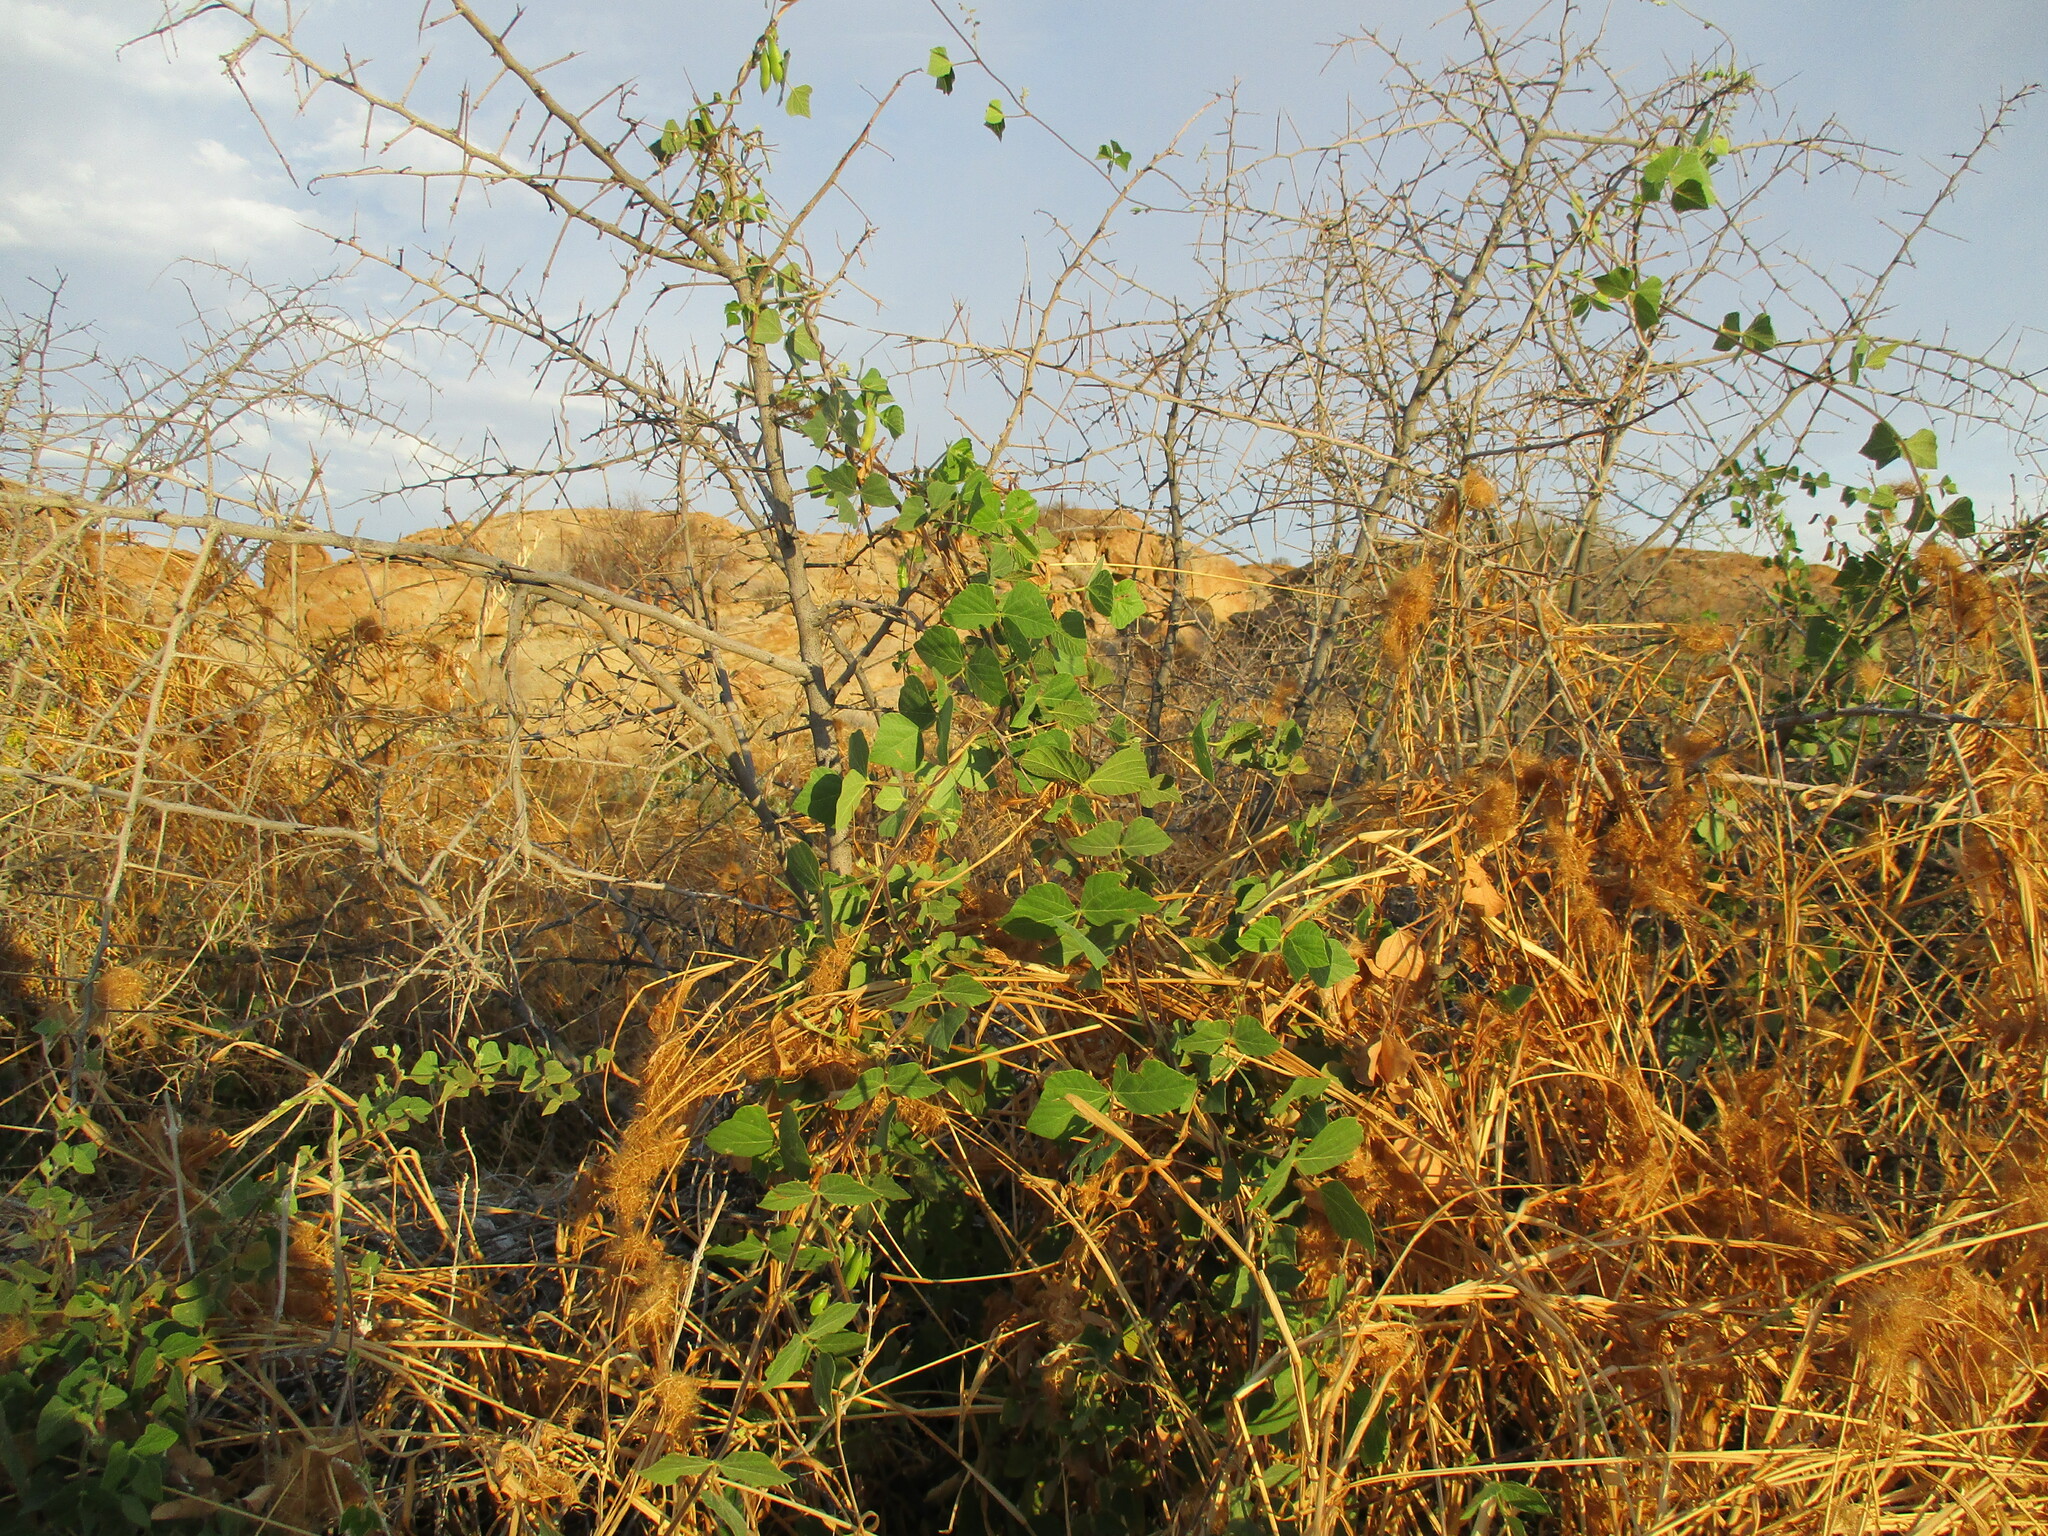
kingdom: Plantae
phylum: Tracheophyta
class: Magnoliopsida
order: Fabales
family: Fabaceae
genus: Rhynchosia
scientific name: Rhynchosia sublobata
